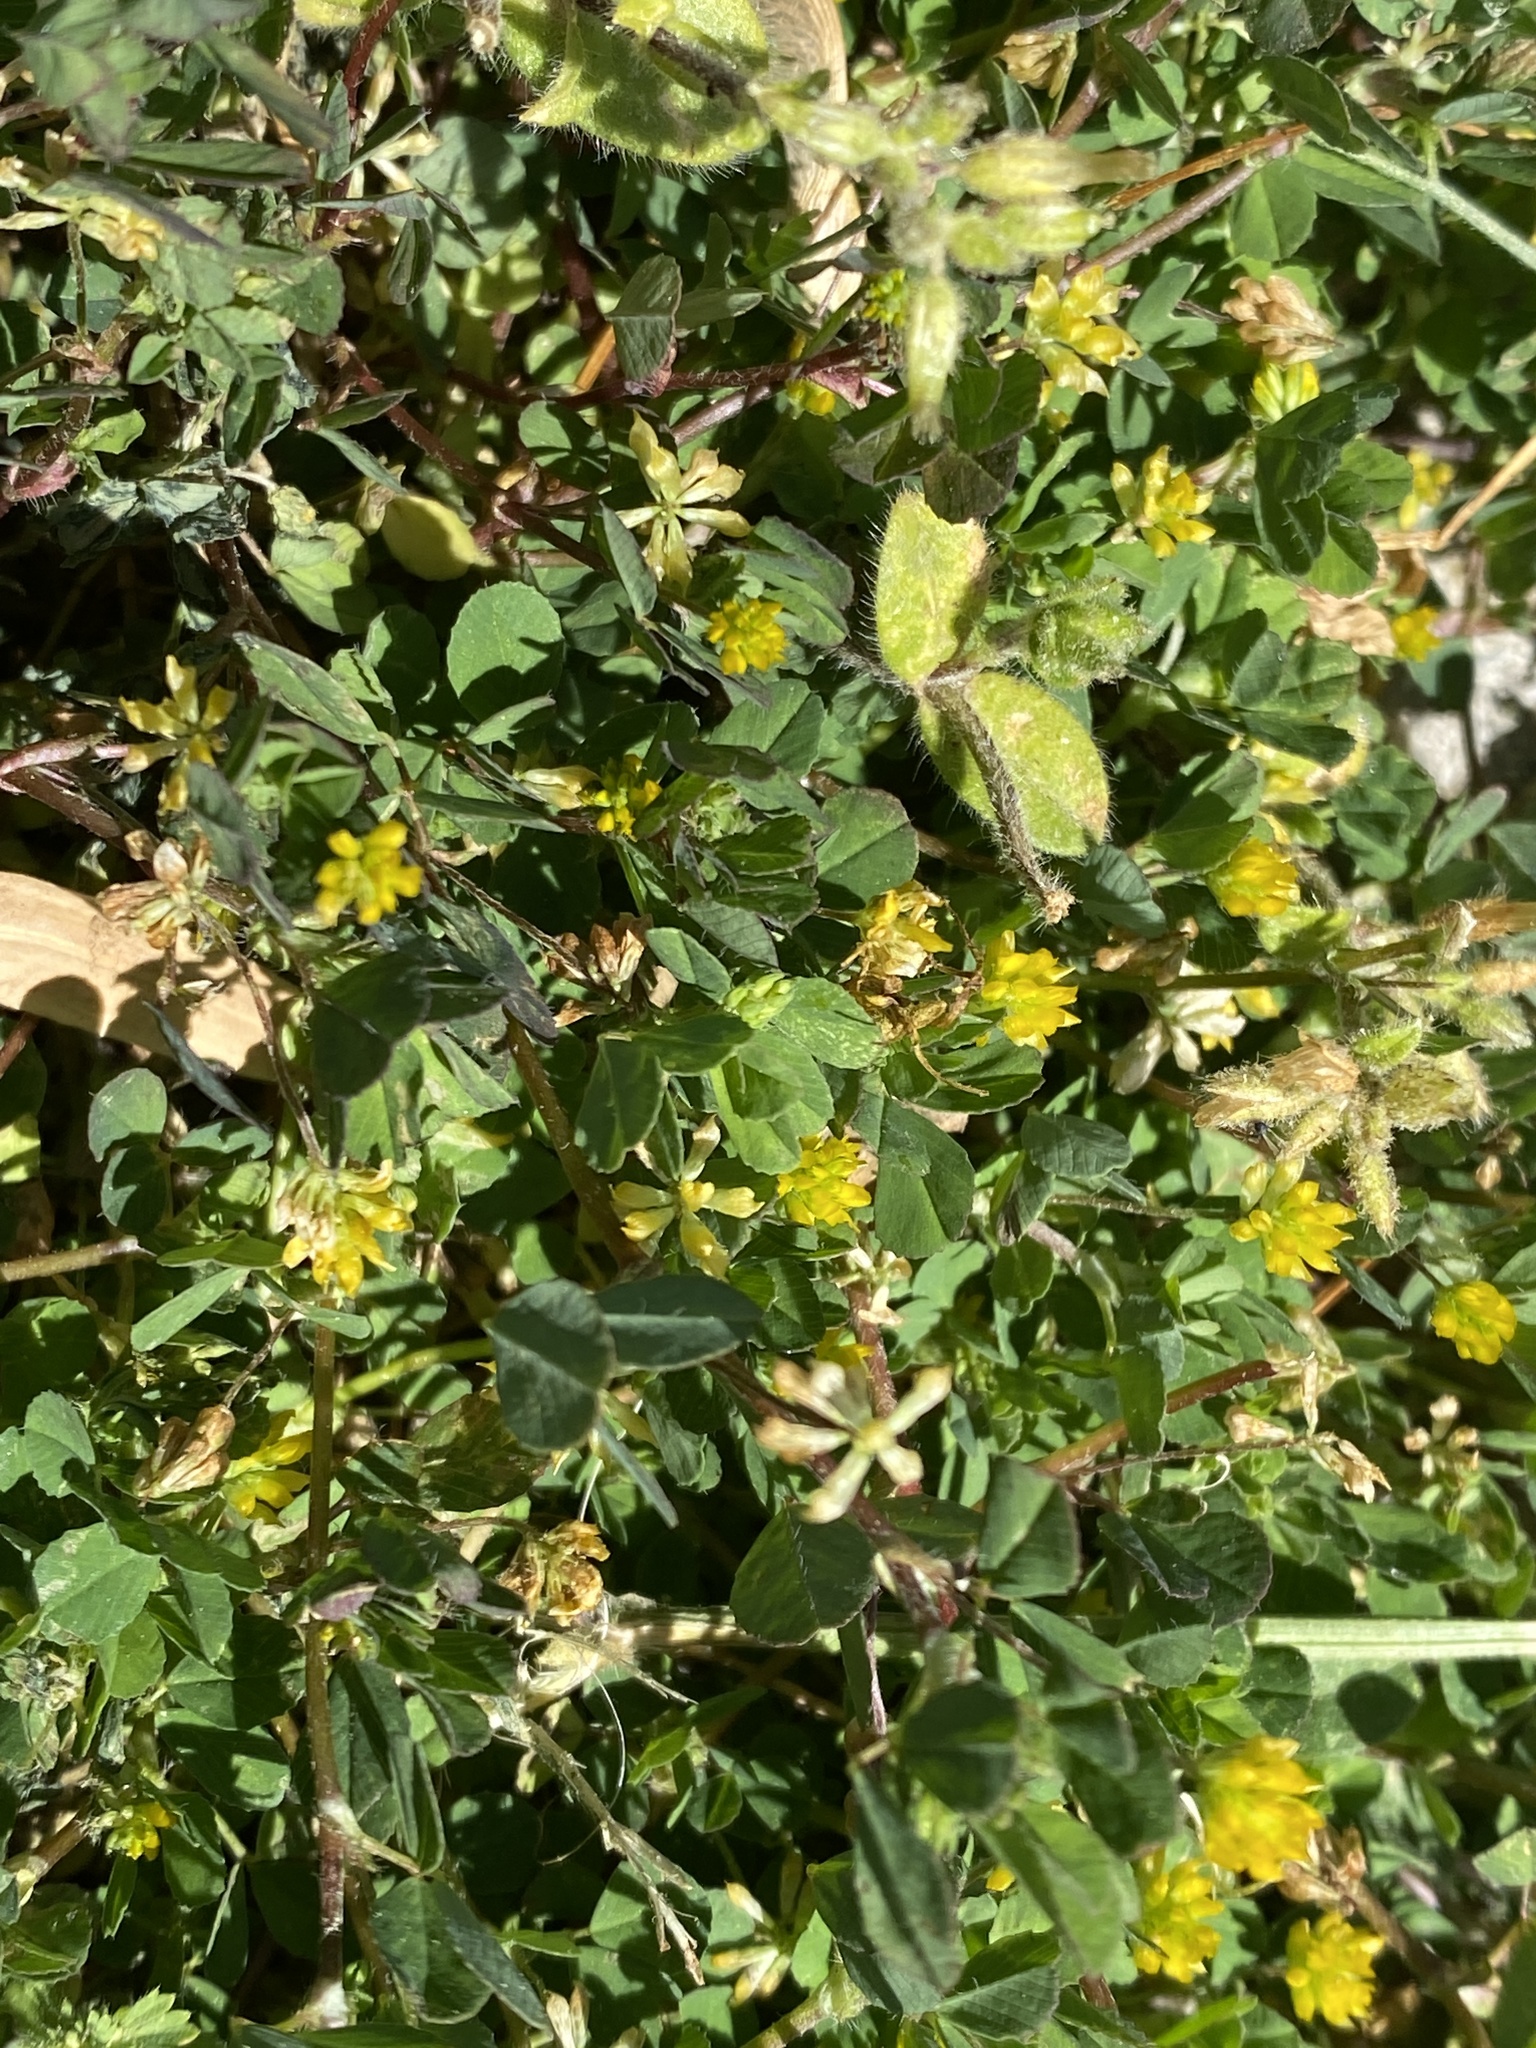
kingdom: Plantae
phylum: Tracheophyta
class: Magnoliopsida
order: Fabales
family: Fabaceae
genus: Trifolium
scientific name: Trifolium dubium
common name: Suckling clover
